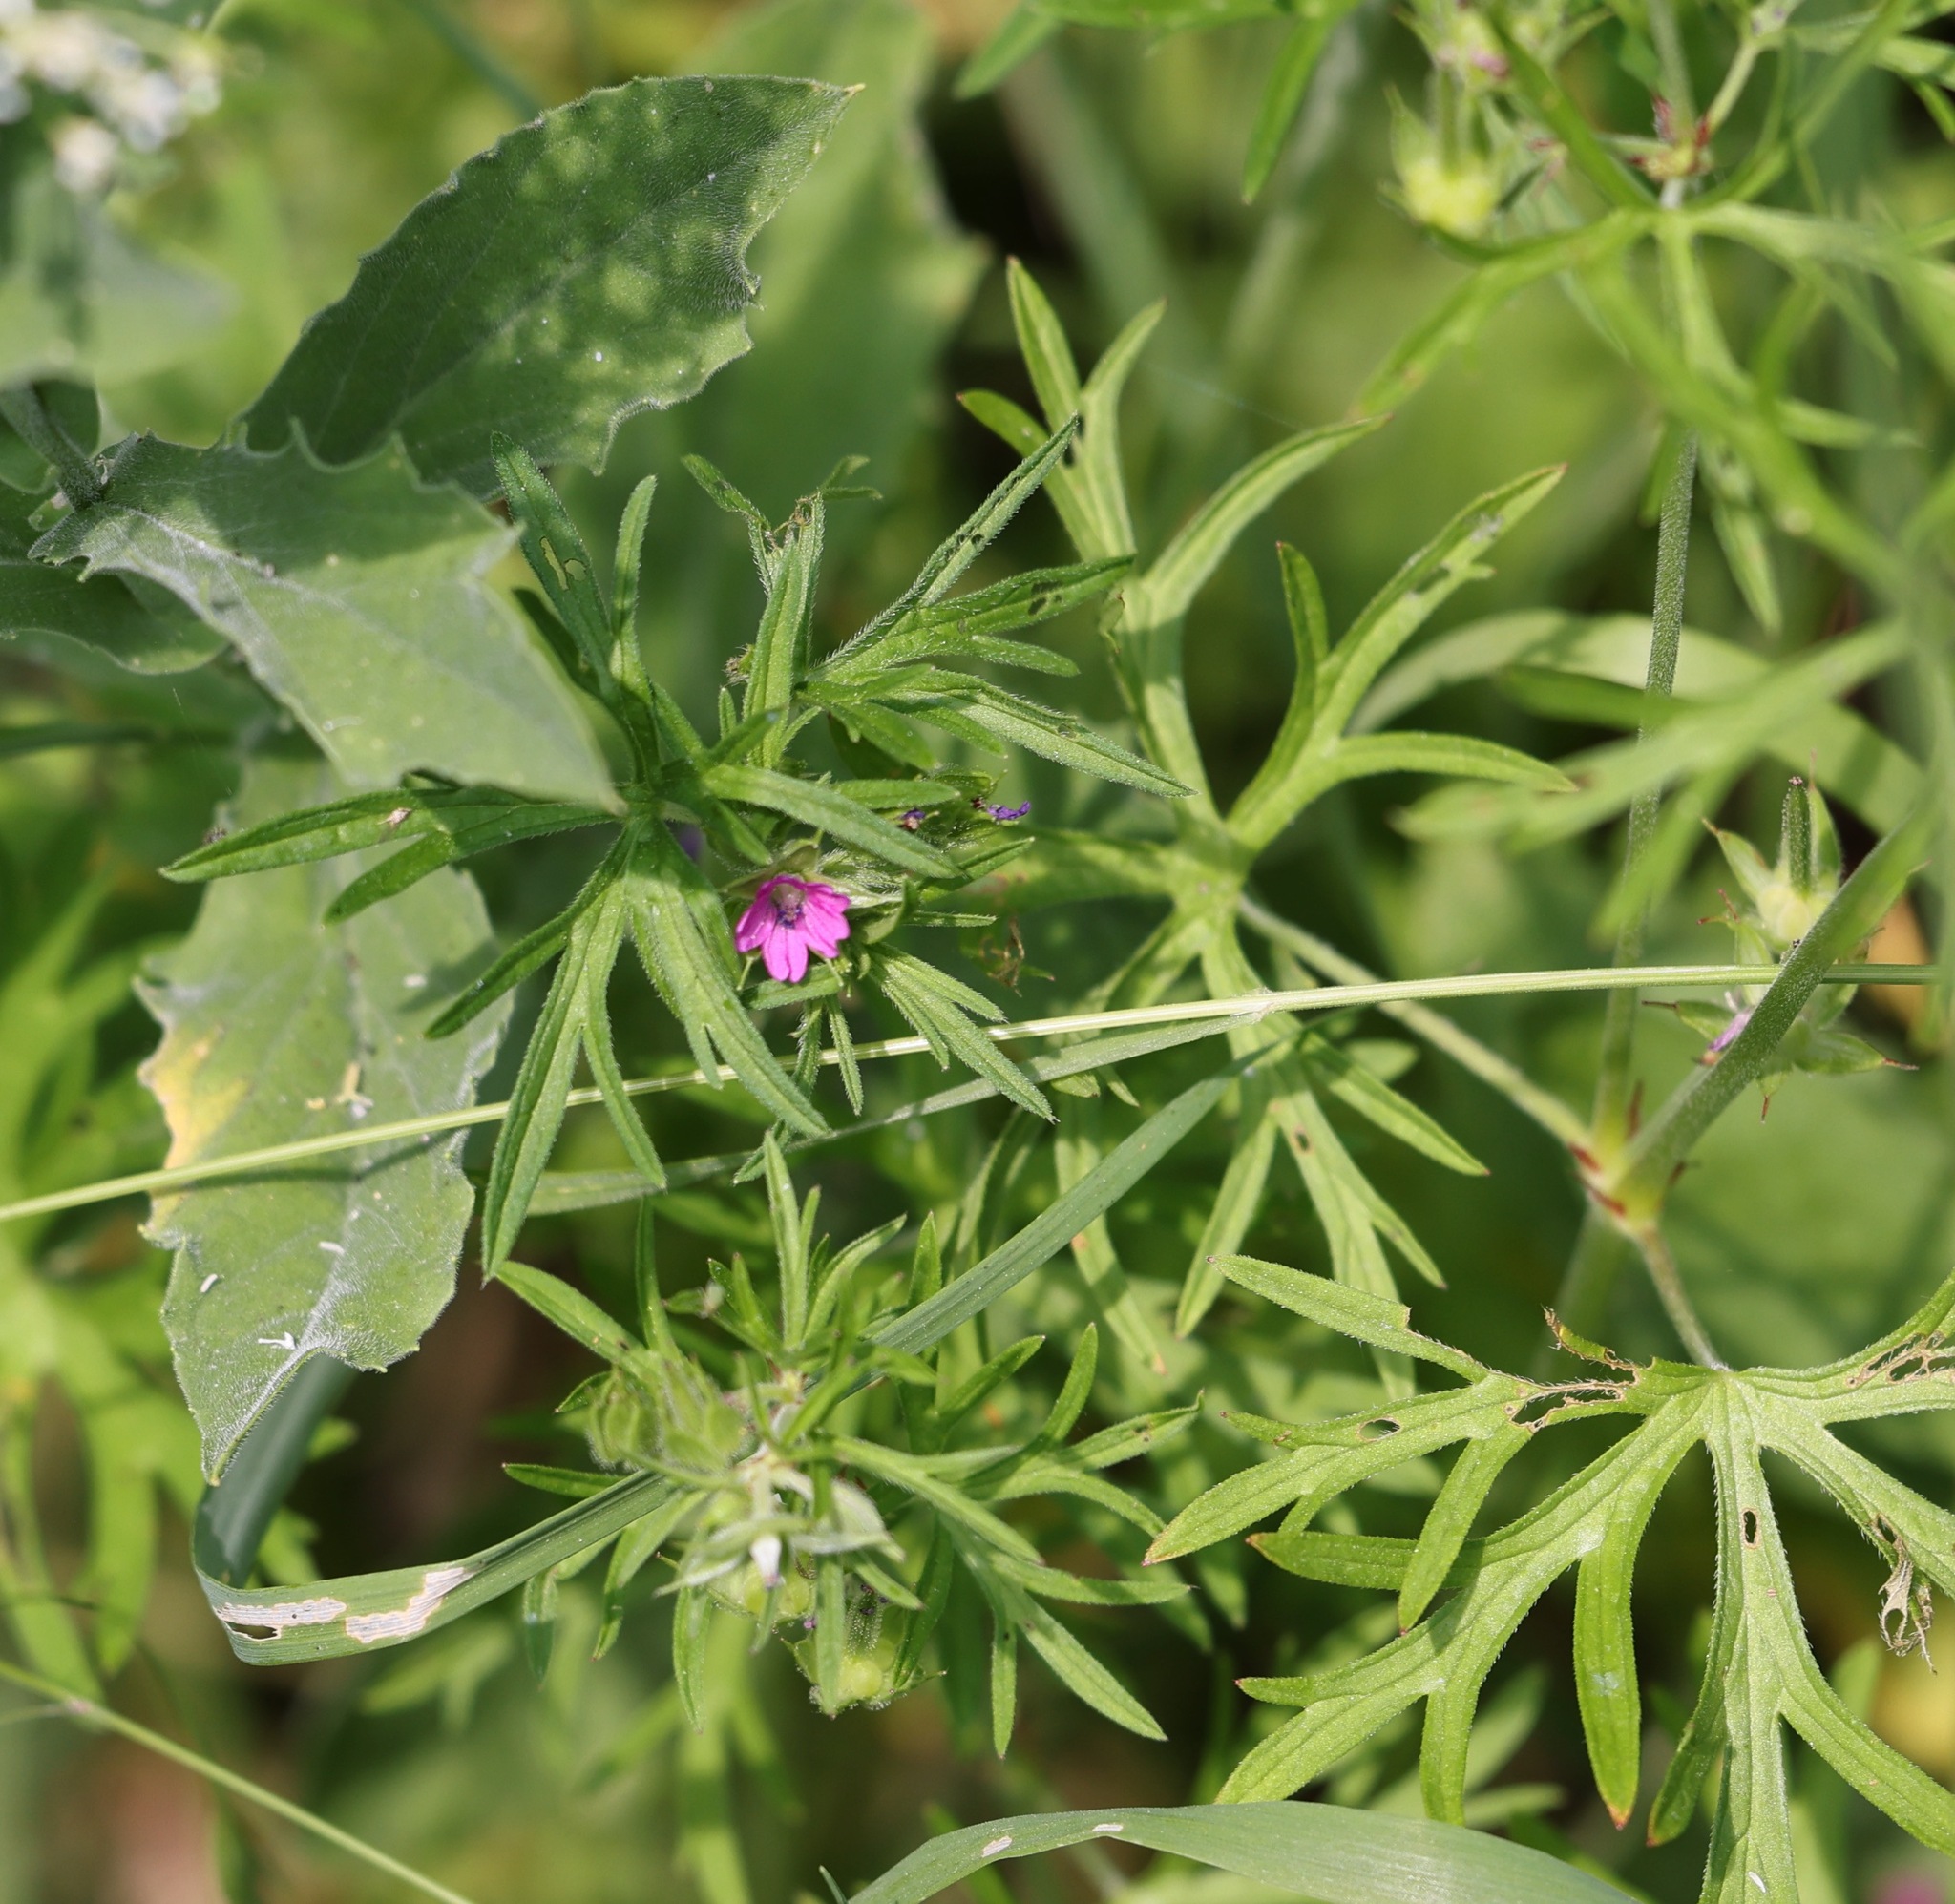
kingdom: Plantae
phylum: Tracheophyta
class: Magnoliopsida
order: Geraniales
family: Geraniaceae
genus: Geranium
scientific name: Geranium dissectum
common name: Cut-leaved crane's-bill
